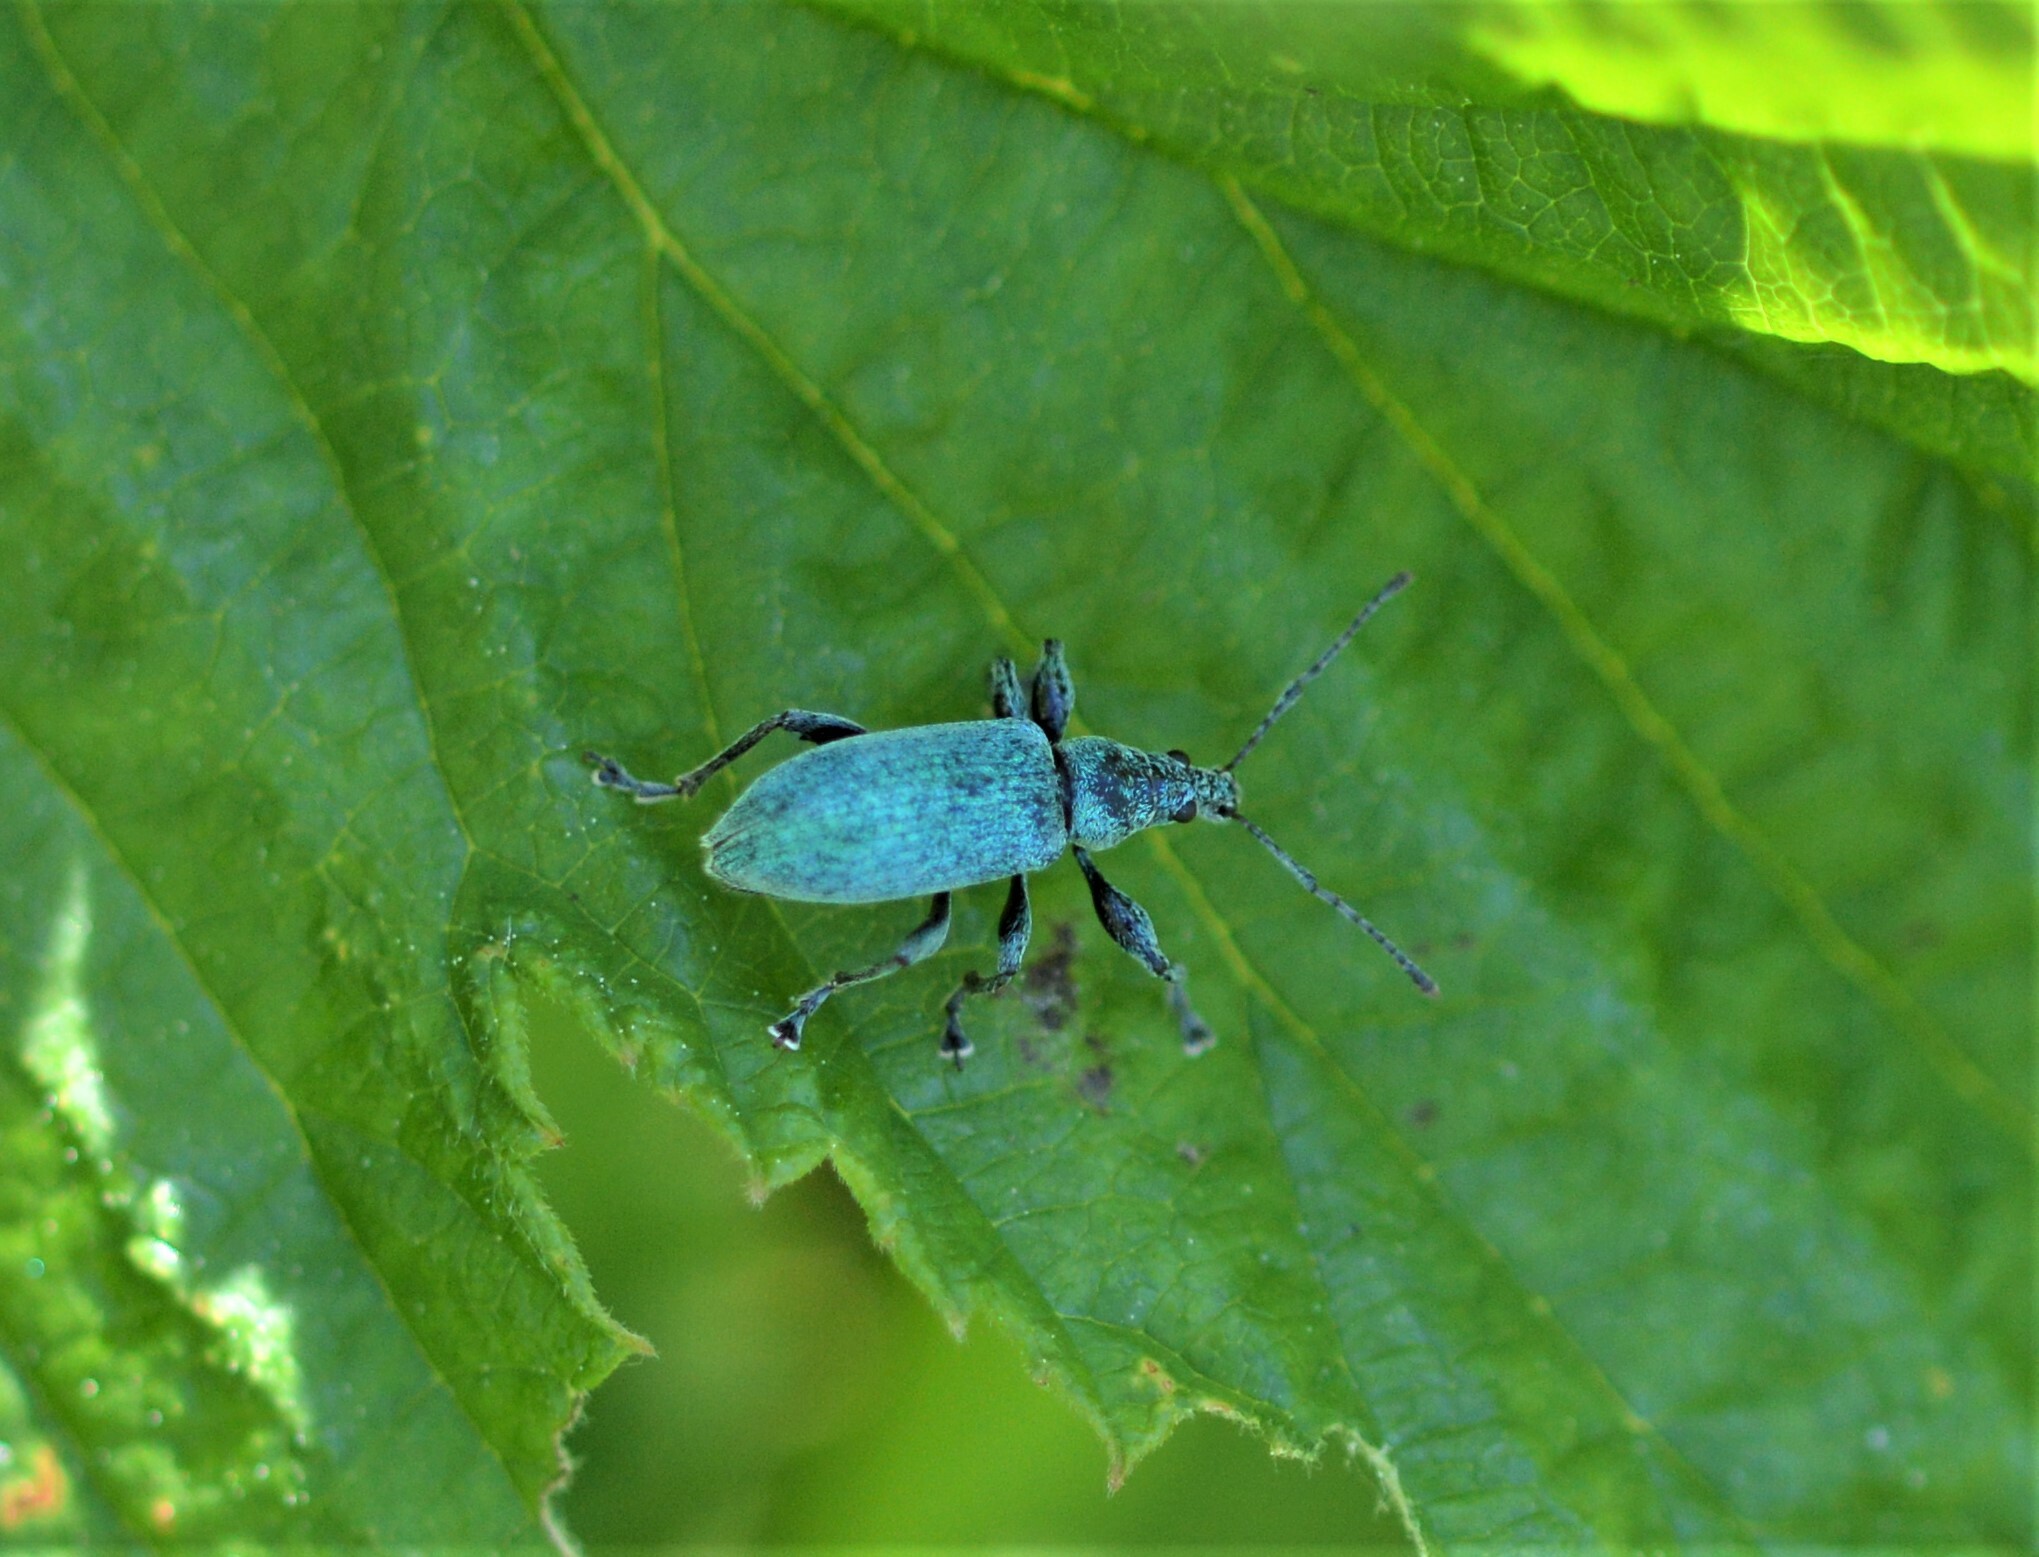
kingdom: Animalia
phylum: Arthropoda
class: Insecta
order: Coleoptera
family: Curculionidae
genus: Phyllobius
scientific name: Phyllobius pomaceus
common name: Green nettle weevil
